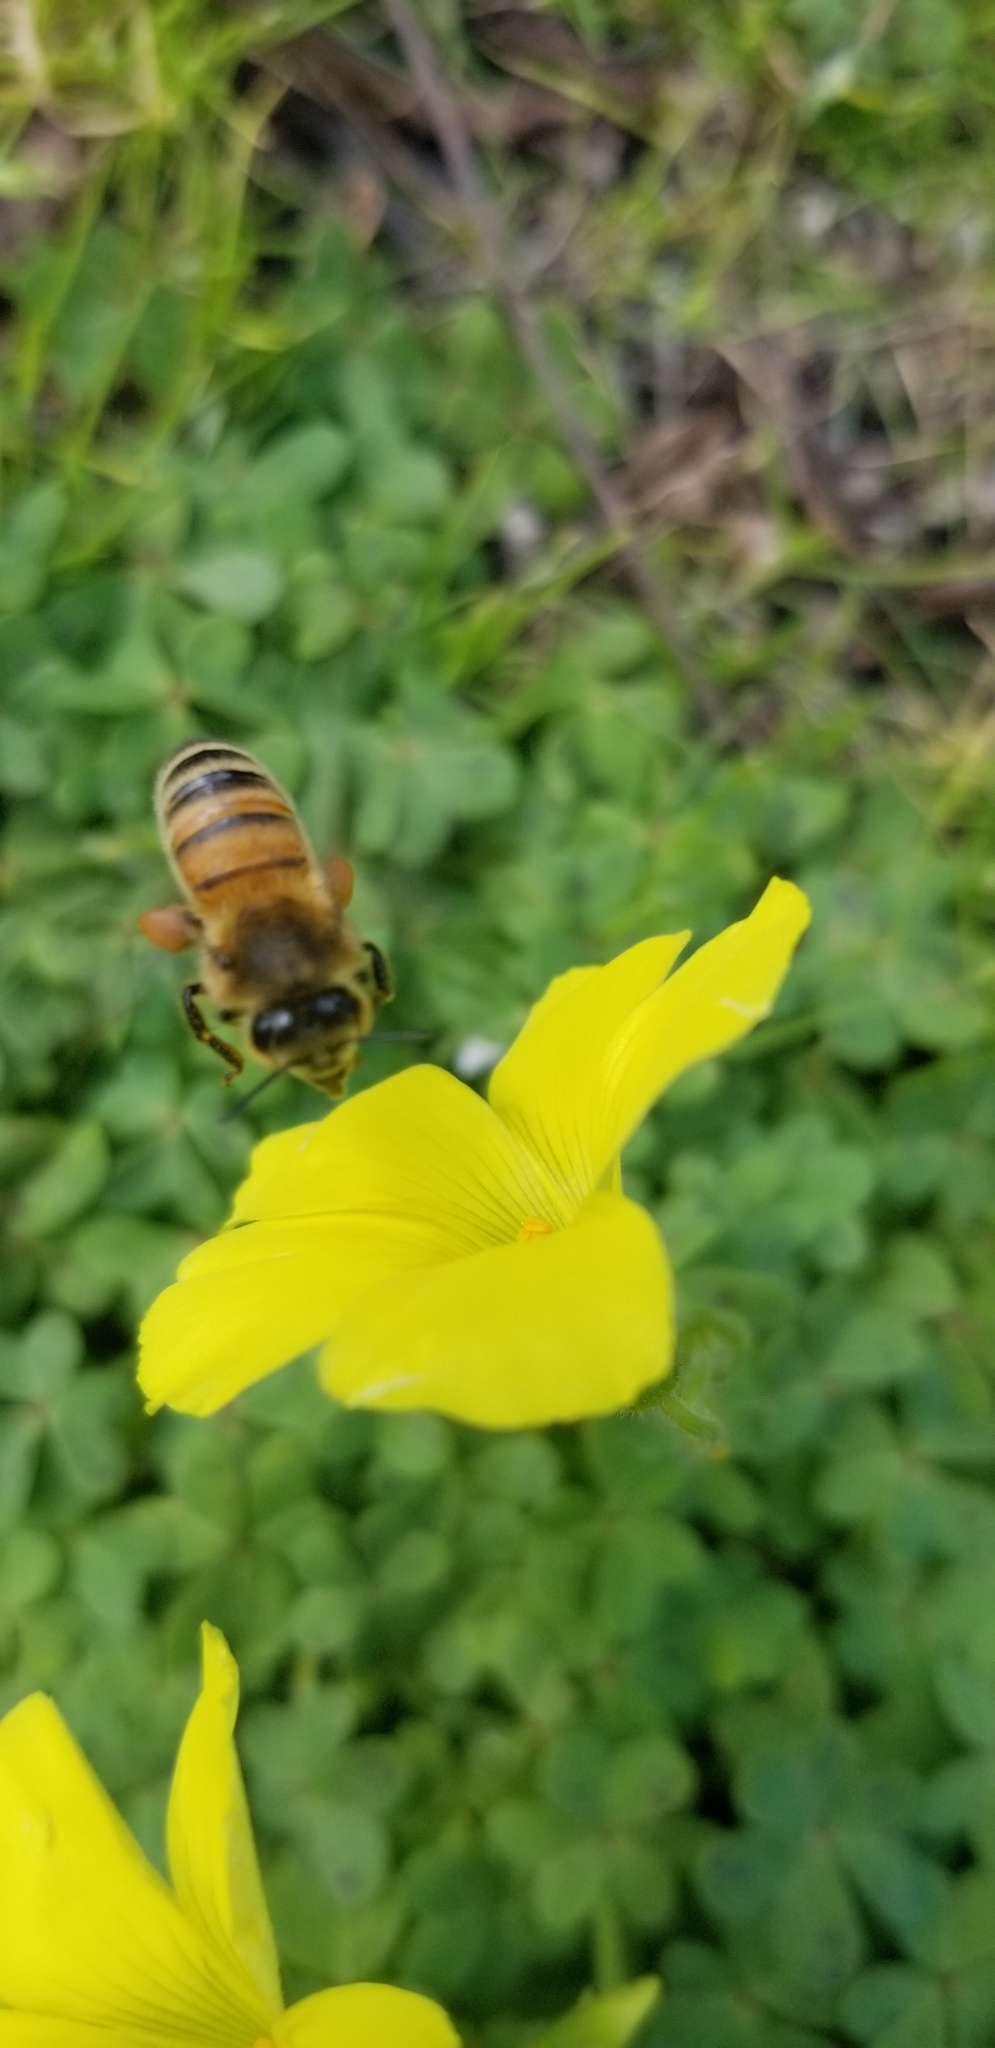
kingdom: Animalia
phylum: Arthropoda
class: Insecta
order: Hymenoptera
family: Apidae
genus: Apis
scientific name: Apis mellifera
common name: Honey bee
